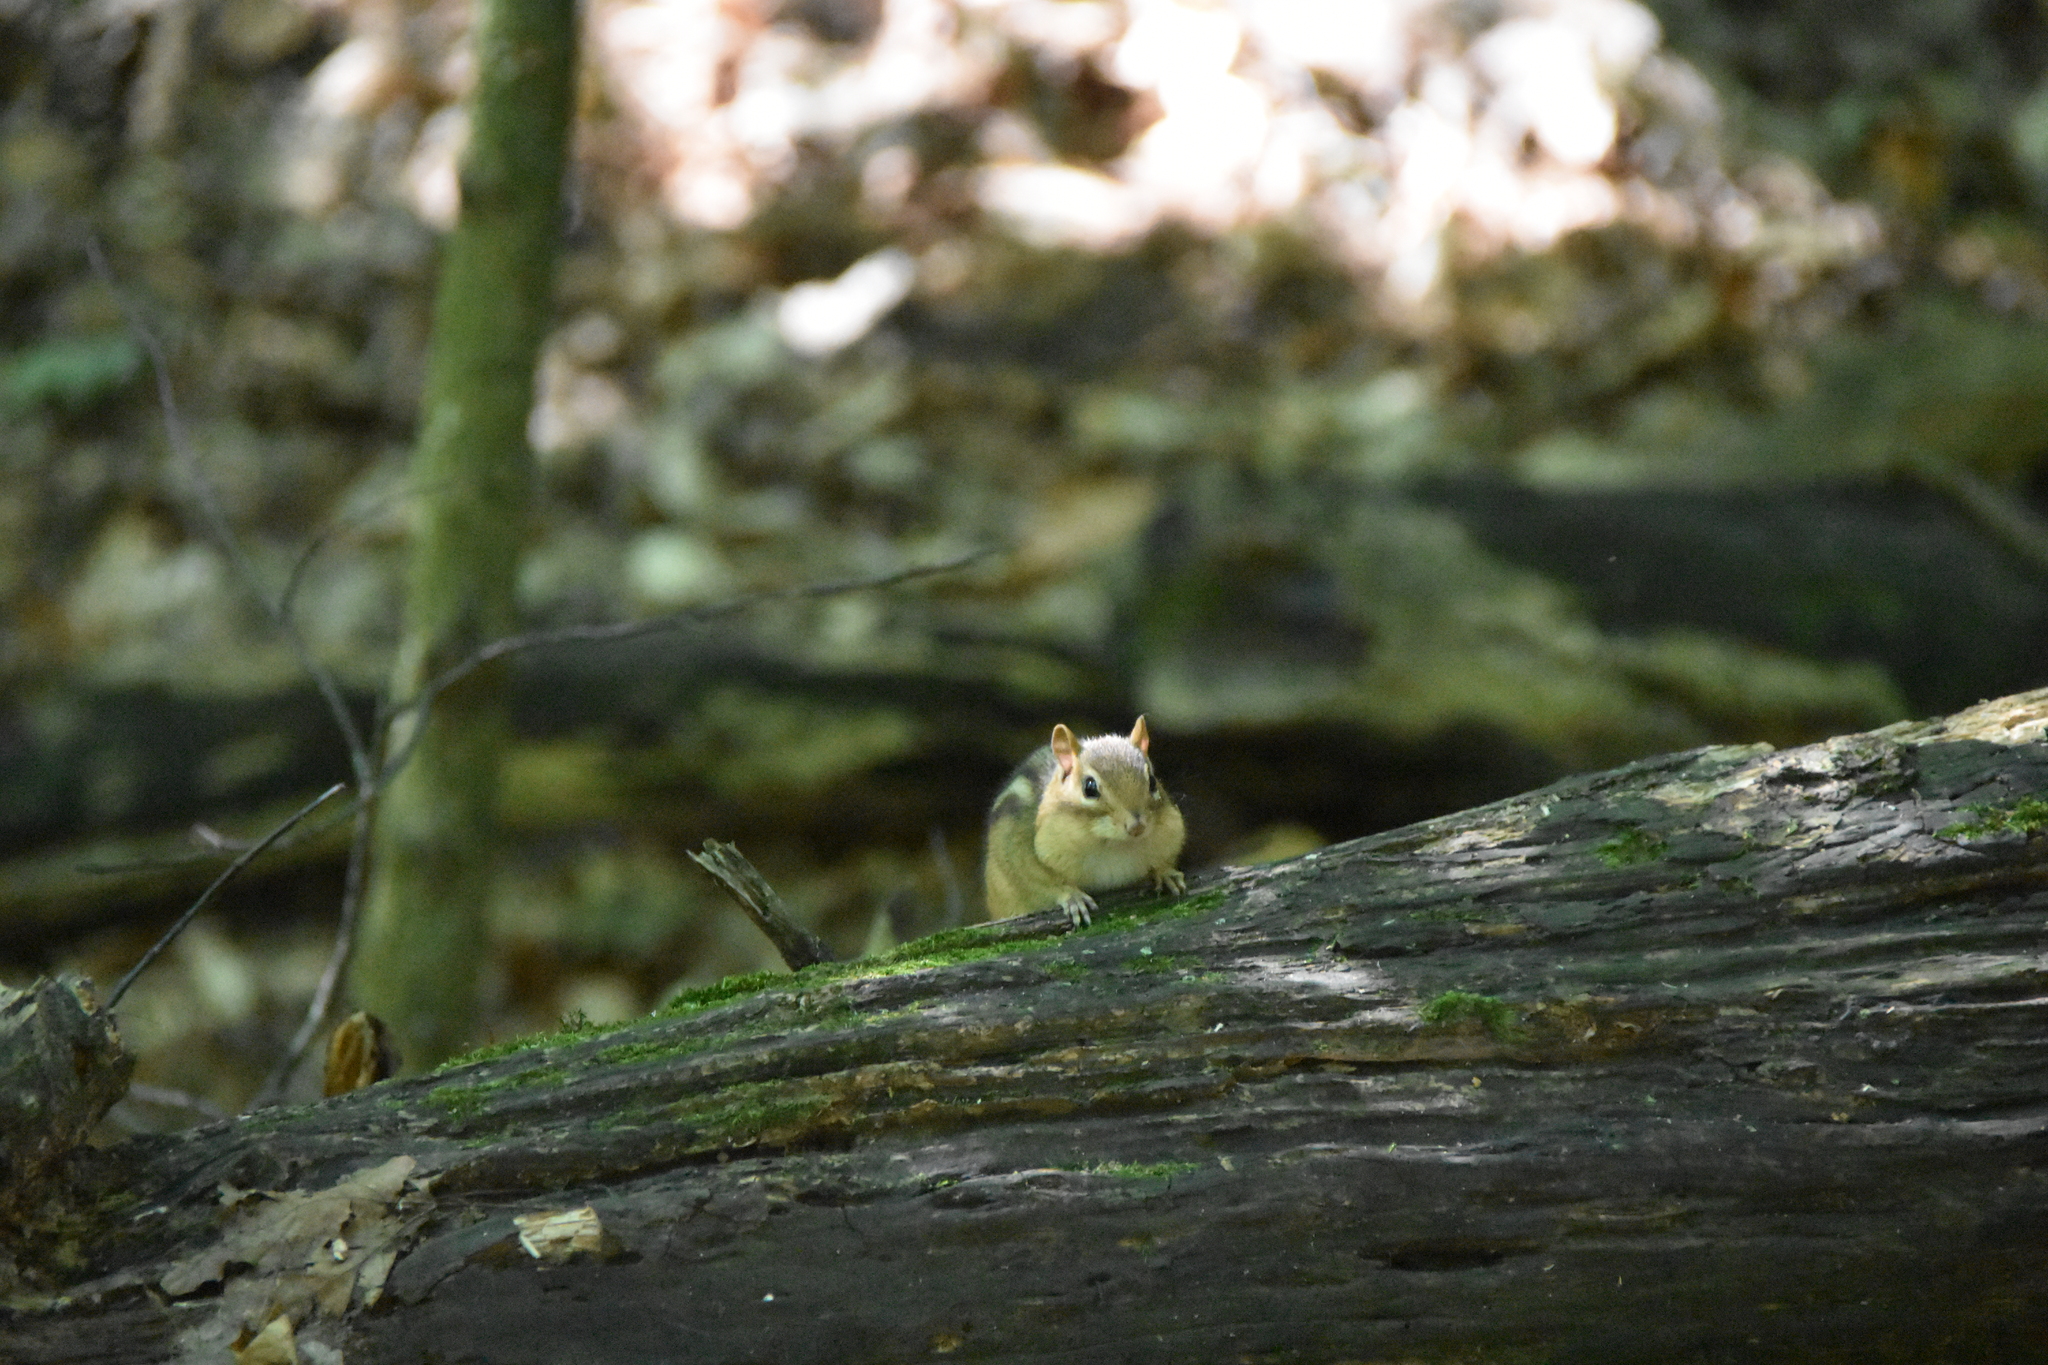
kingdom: Animalia
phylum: Chordata
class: Mammalia
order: Rodentia
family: Sciuridae
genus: Tamias
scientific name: Tamias striatus
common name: Eastern chipmunk
